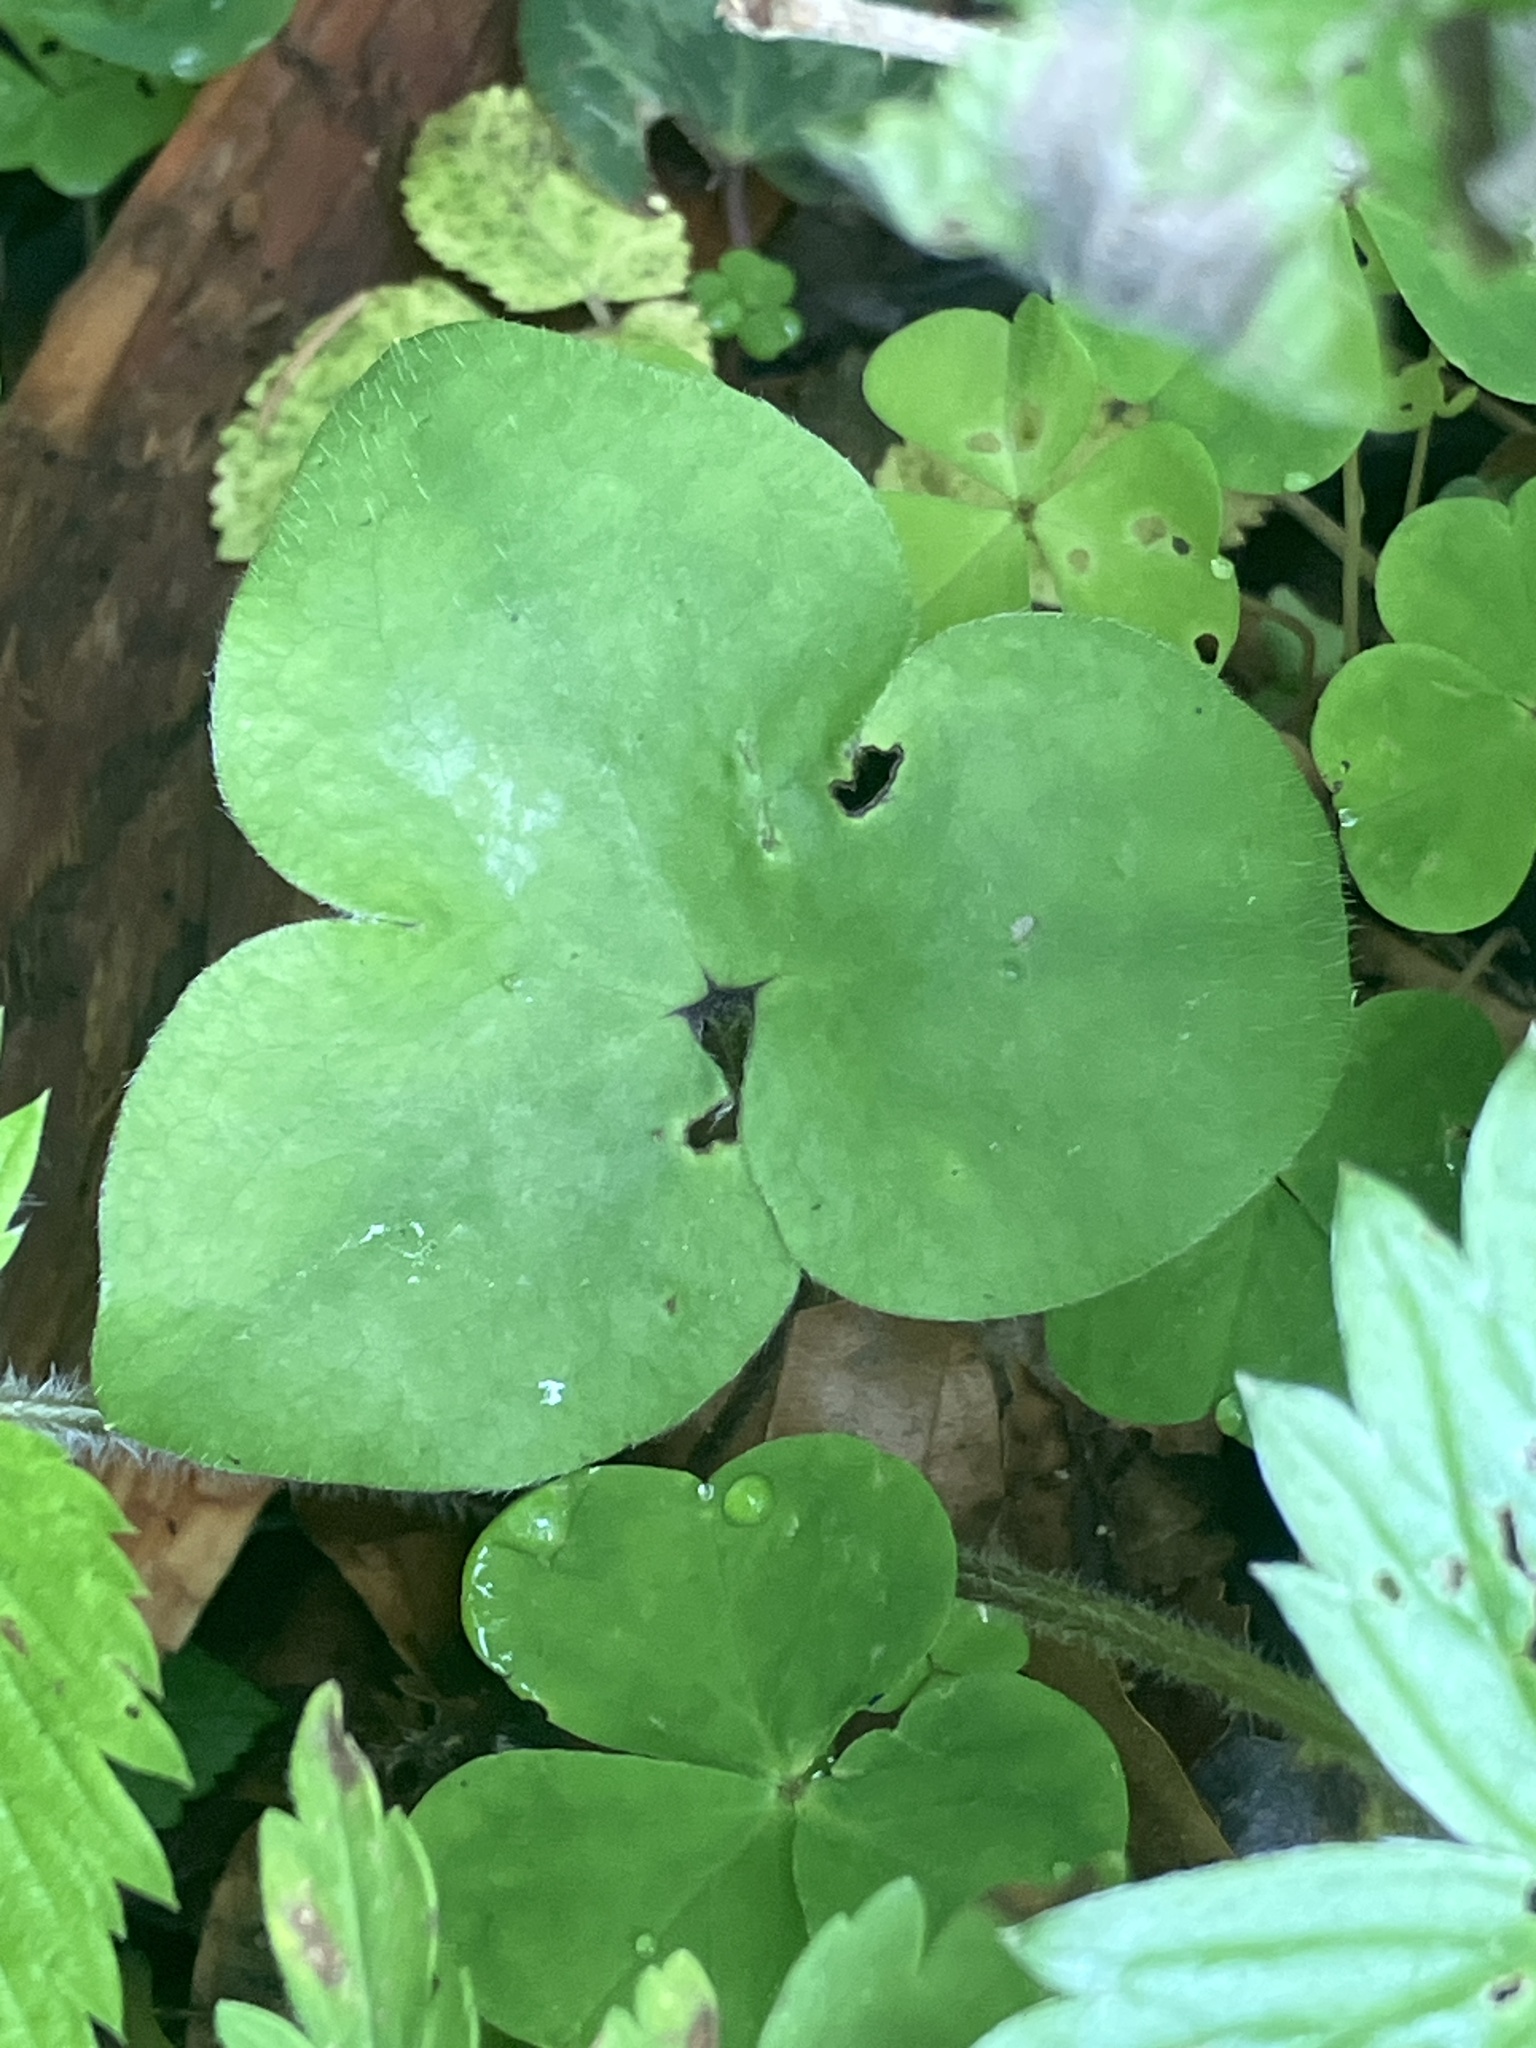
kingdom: Plantae
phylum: Tracheophyta
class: Magnoliopsida
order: Ranunculales
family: Ranunculaceae
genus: Hepatica
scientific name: Hepatica nobilis
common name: Liverleaf
